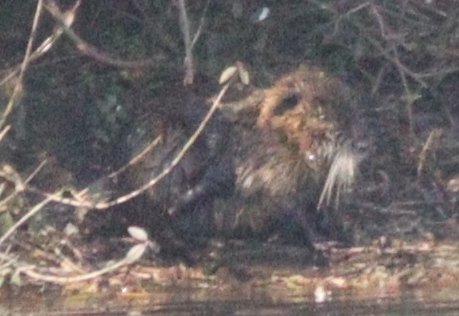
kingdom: Animalia
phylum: Chordata
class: Mammalia
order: Rodentia
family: Myocastoridae
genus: Myocastor
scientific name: Myocastor coypus
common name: Coypu
